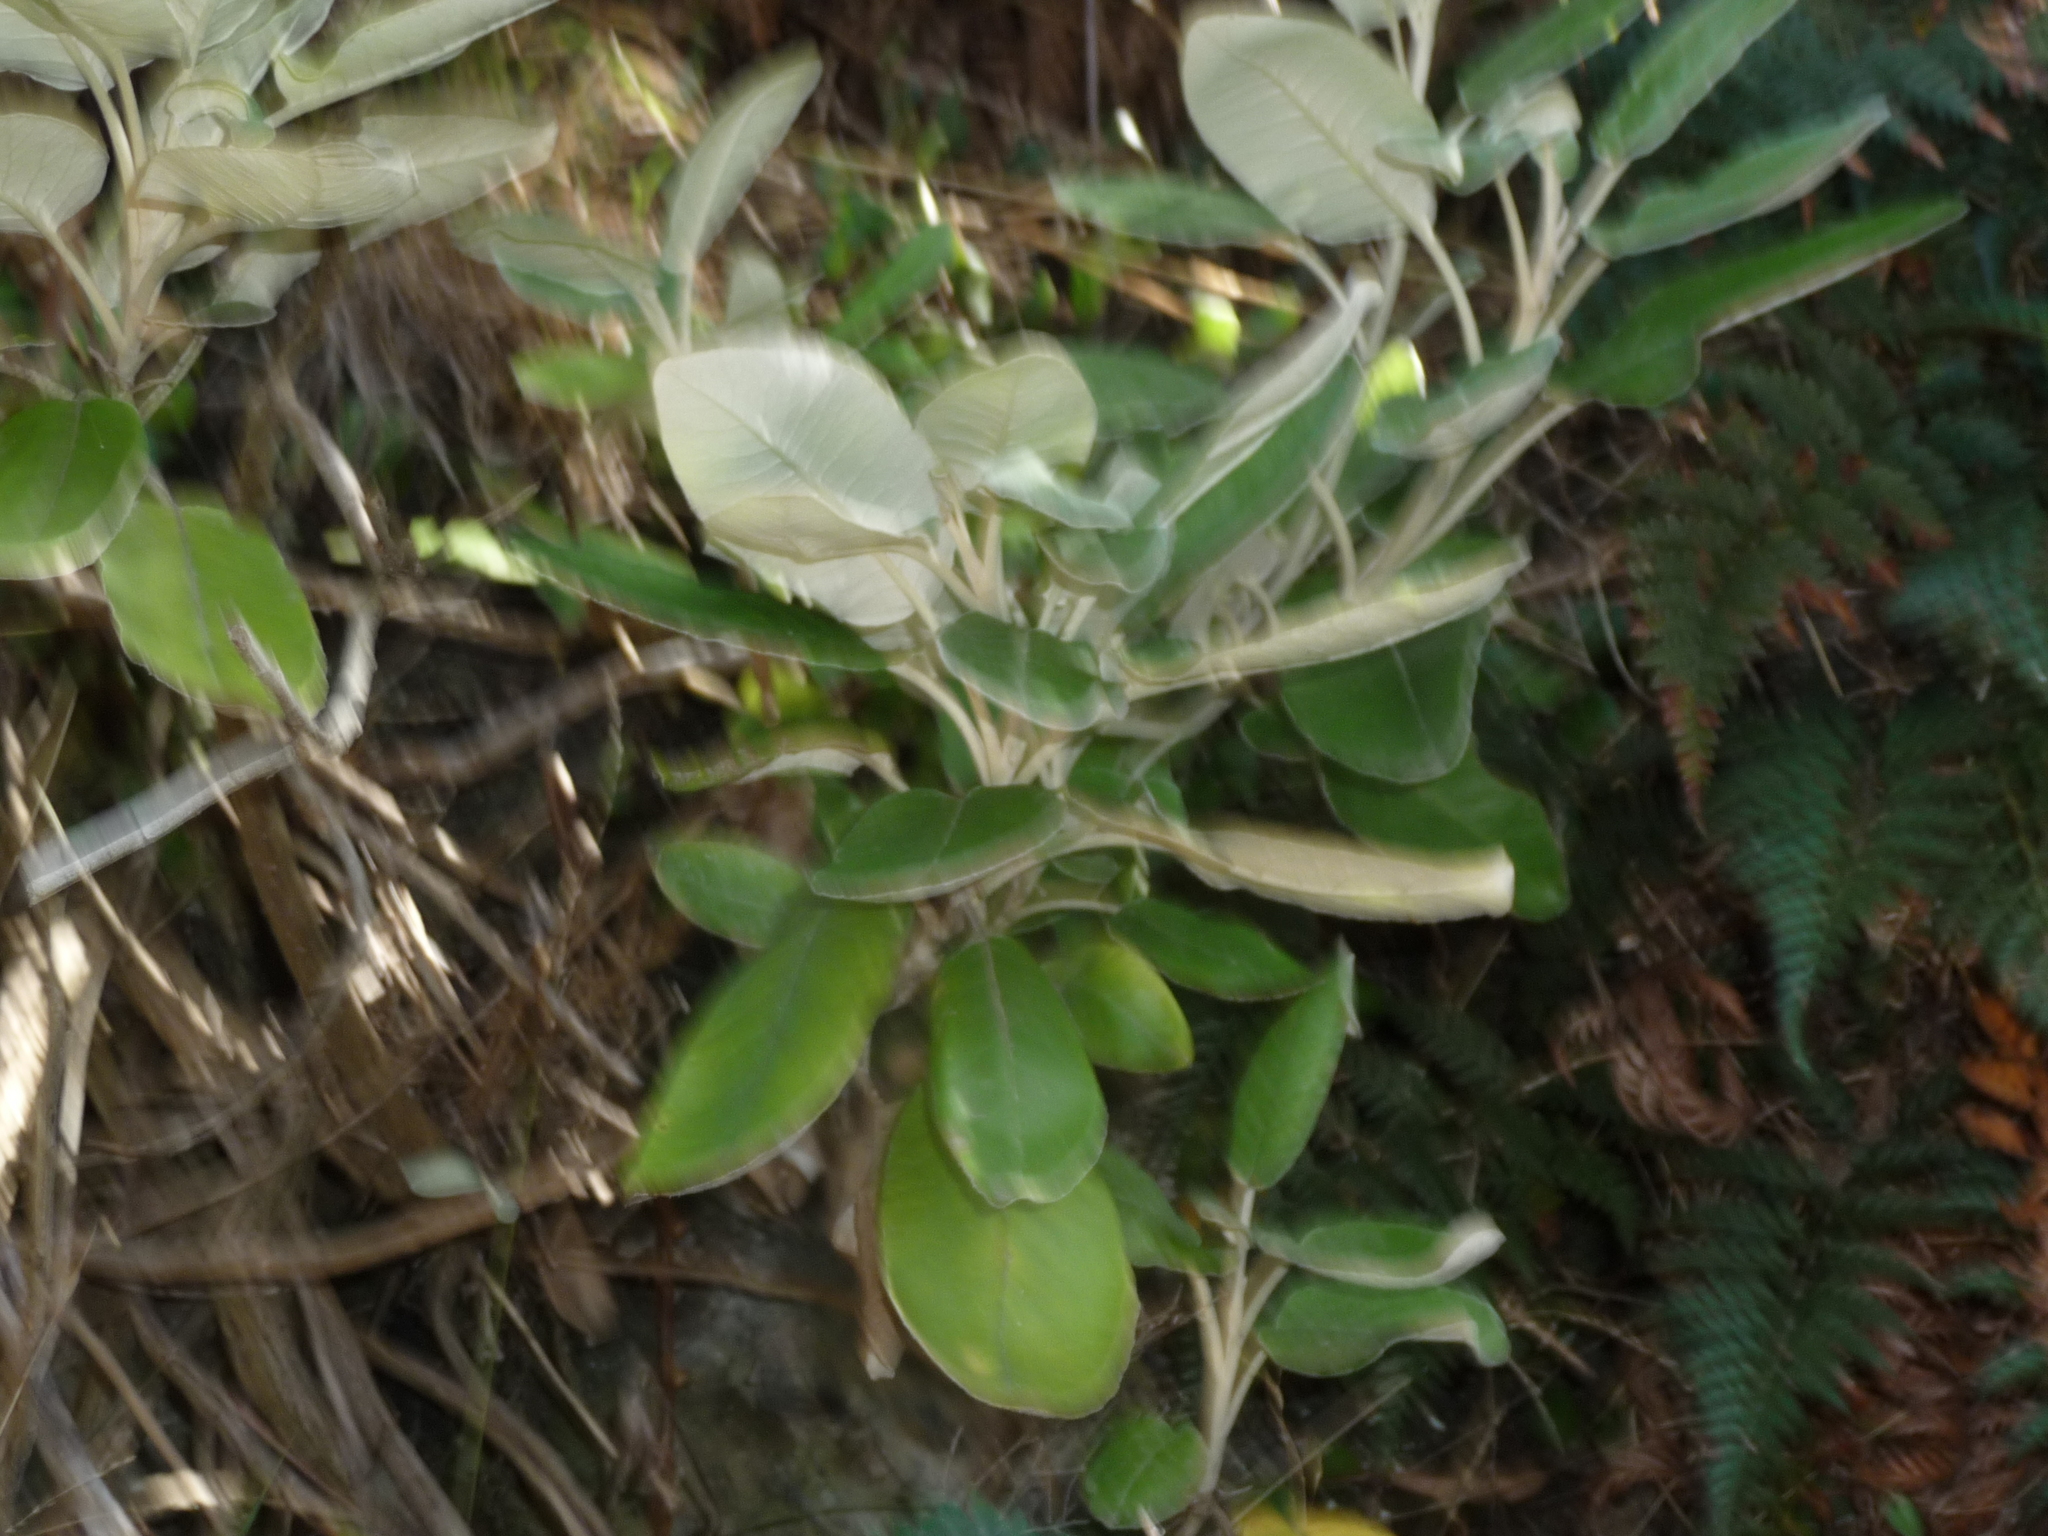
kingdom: Plantae
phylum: Tracheophyta
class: Magnoliopsida
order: Asterales
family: Asteraceae
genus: Brachyglottis
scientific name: Brachyglottis greyi
